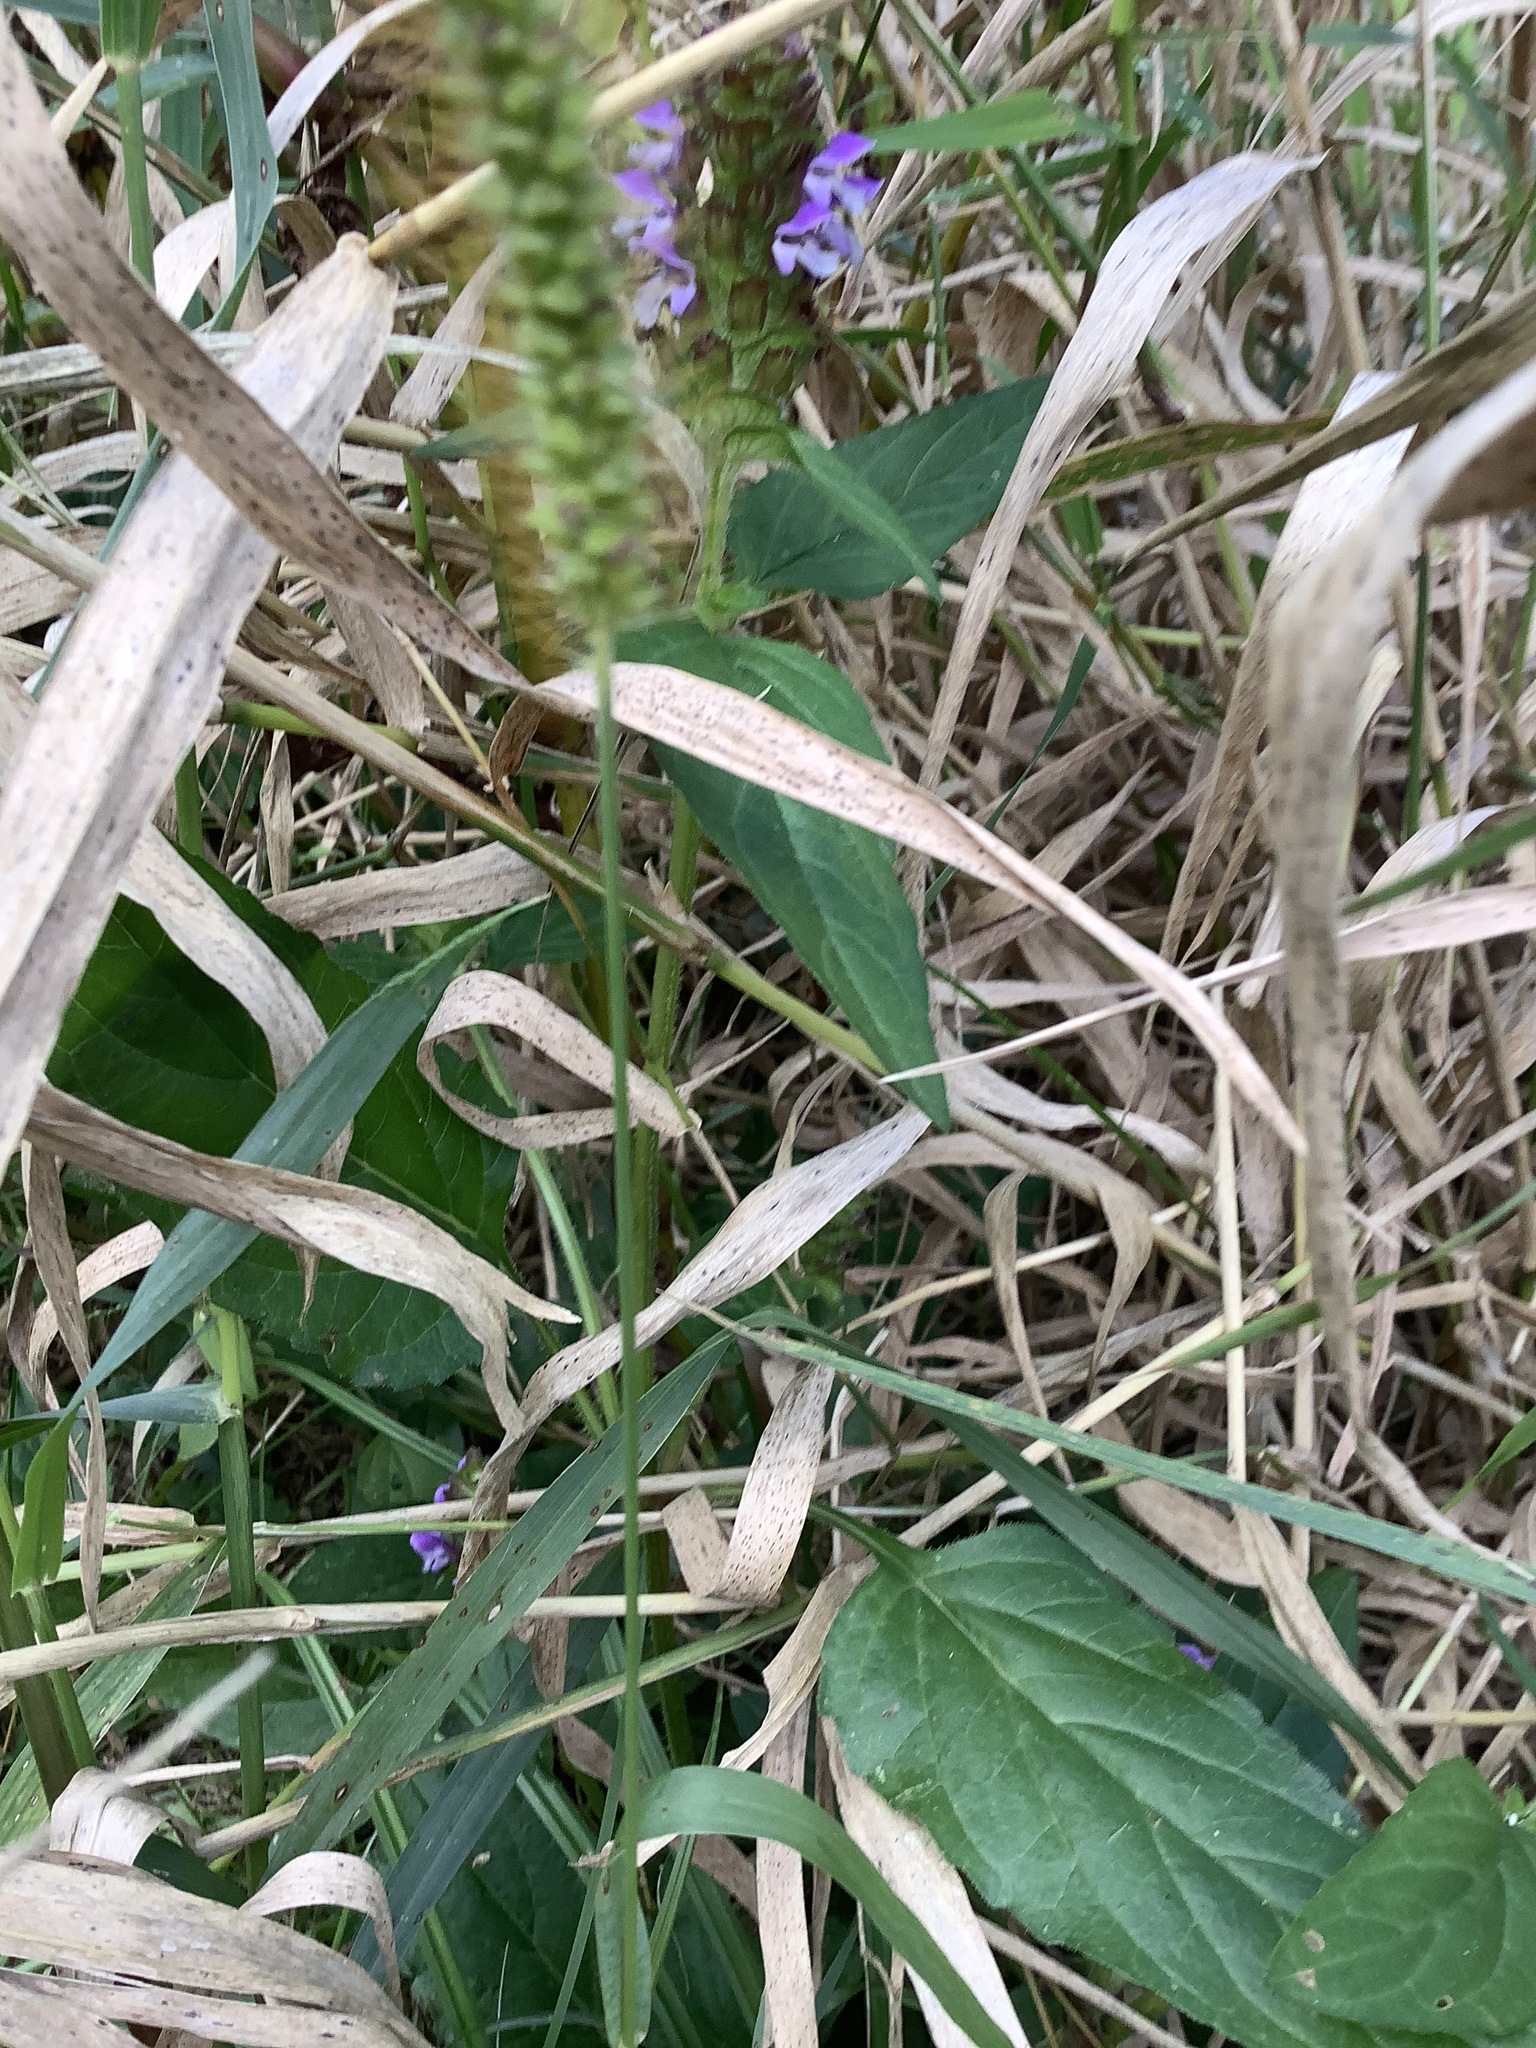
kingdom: Plantae
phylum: Tracheophyta
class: Magnoliopsida
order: Lamiales
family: Lamiaceae
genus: Prunella
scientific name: Prunella vulgaris
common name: Heal-all
